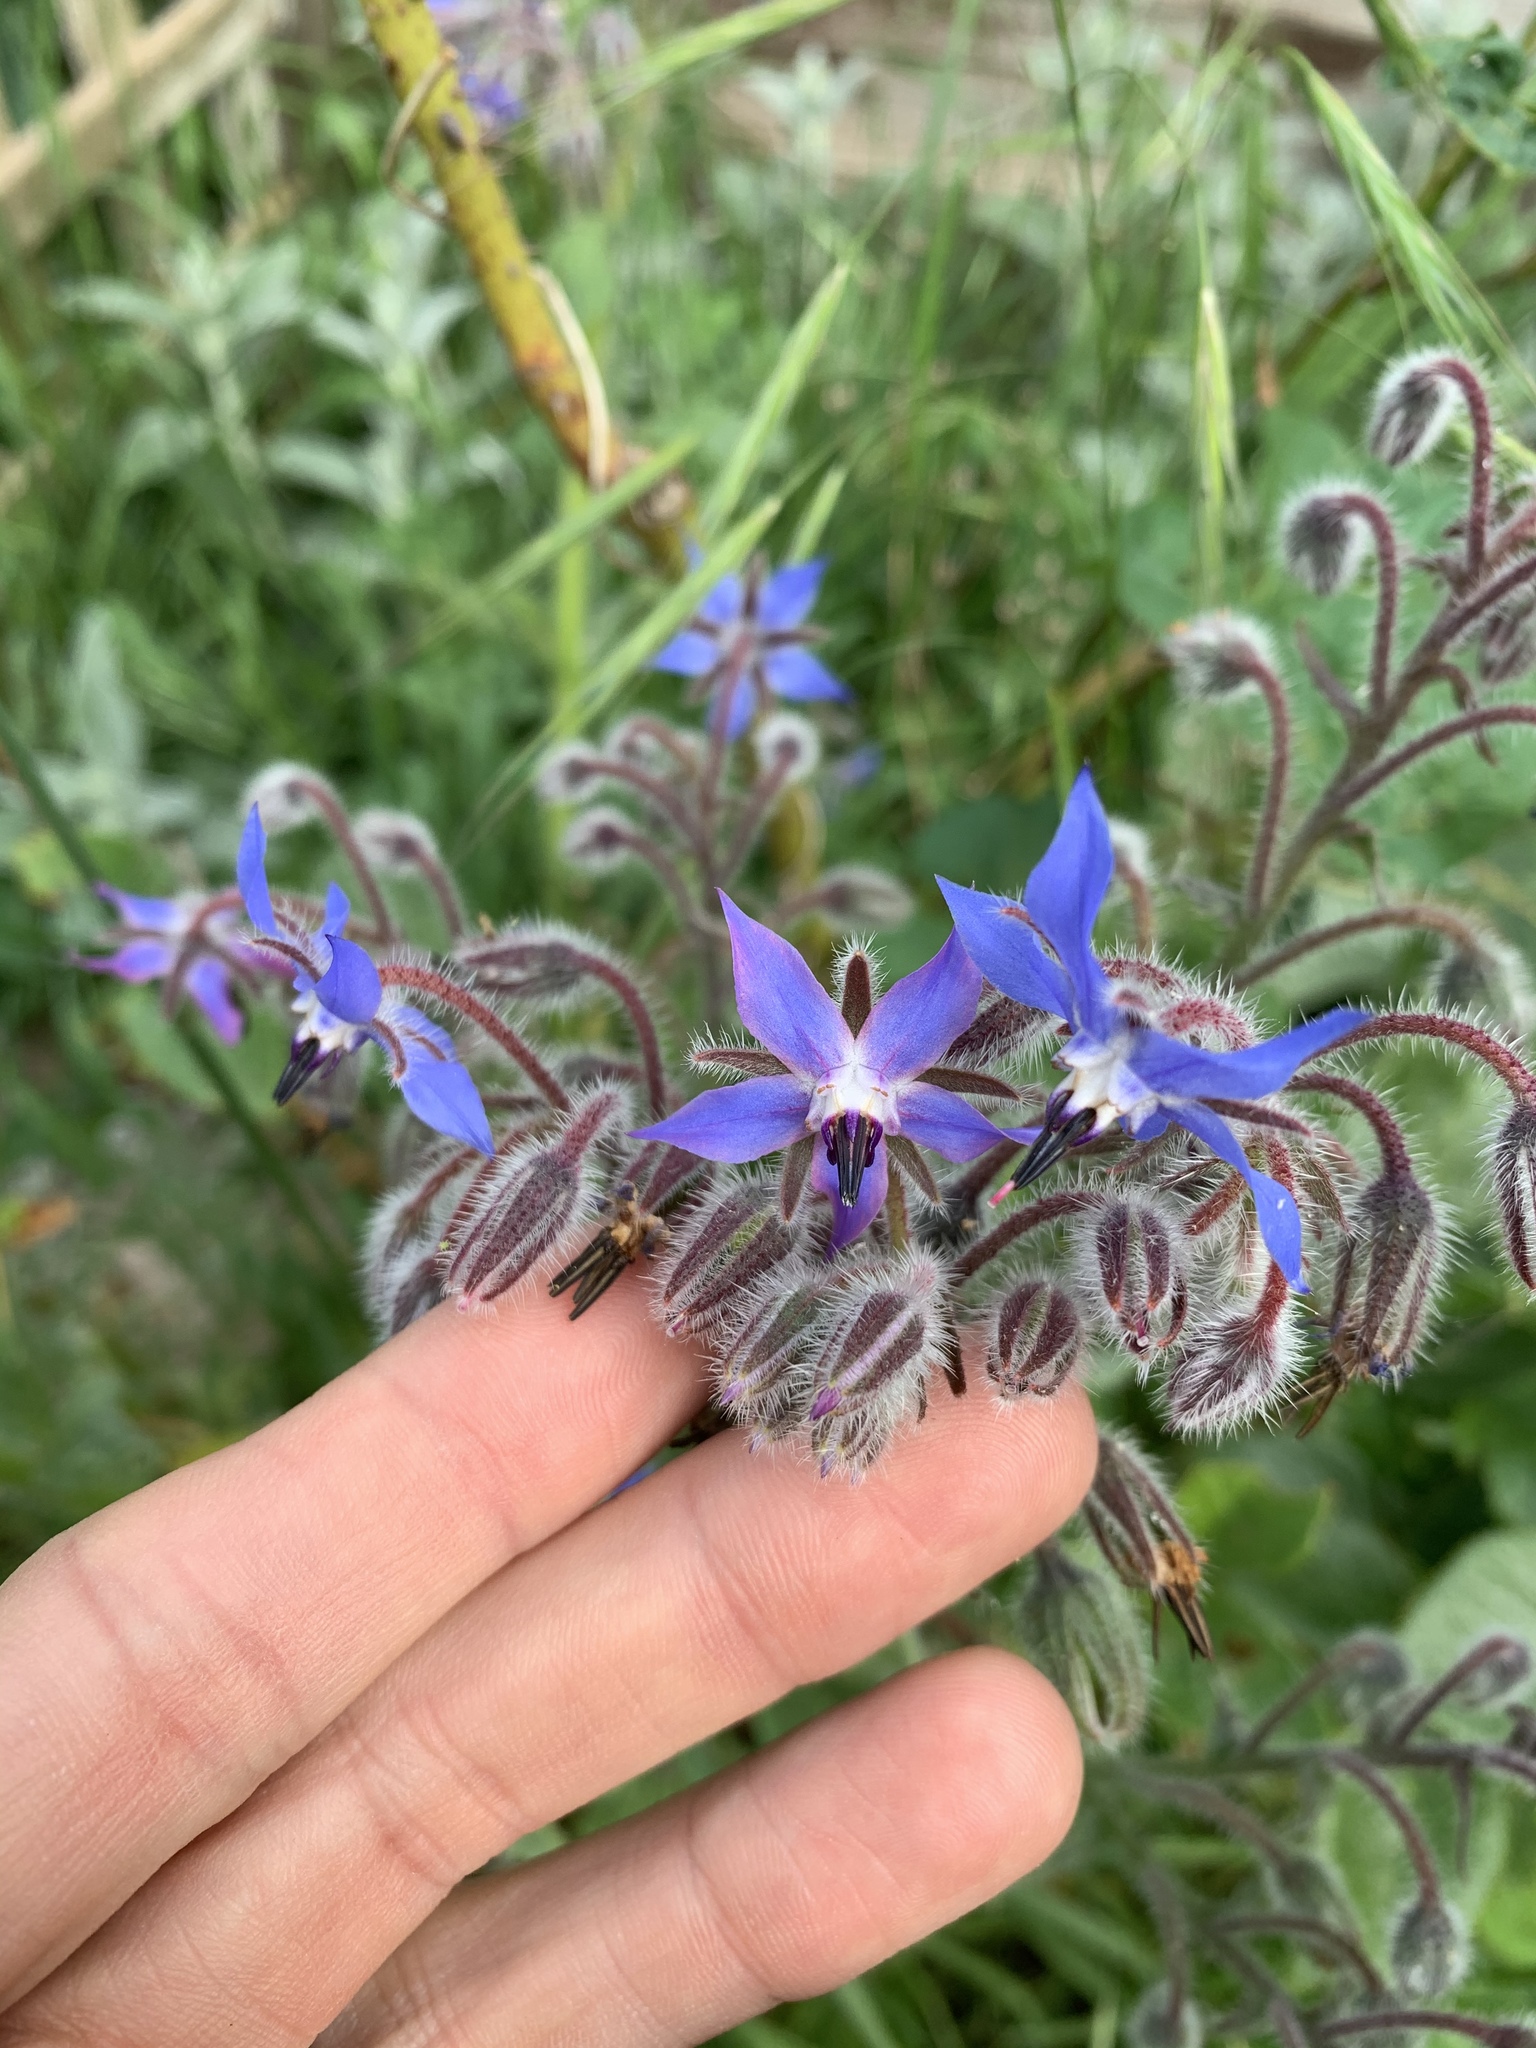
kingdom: Plantae
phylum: Tracheophyta
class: Magnoliopsida
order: Boraginales
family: Boraginaceae
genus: Borago
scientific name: Borago officinalis
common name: Borage
